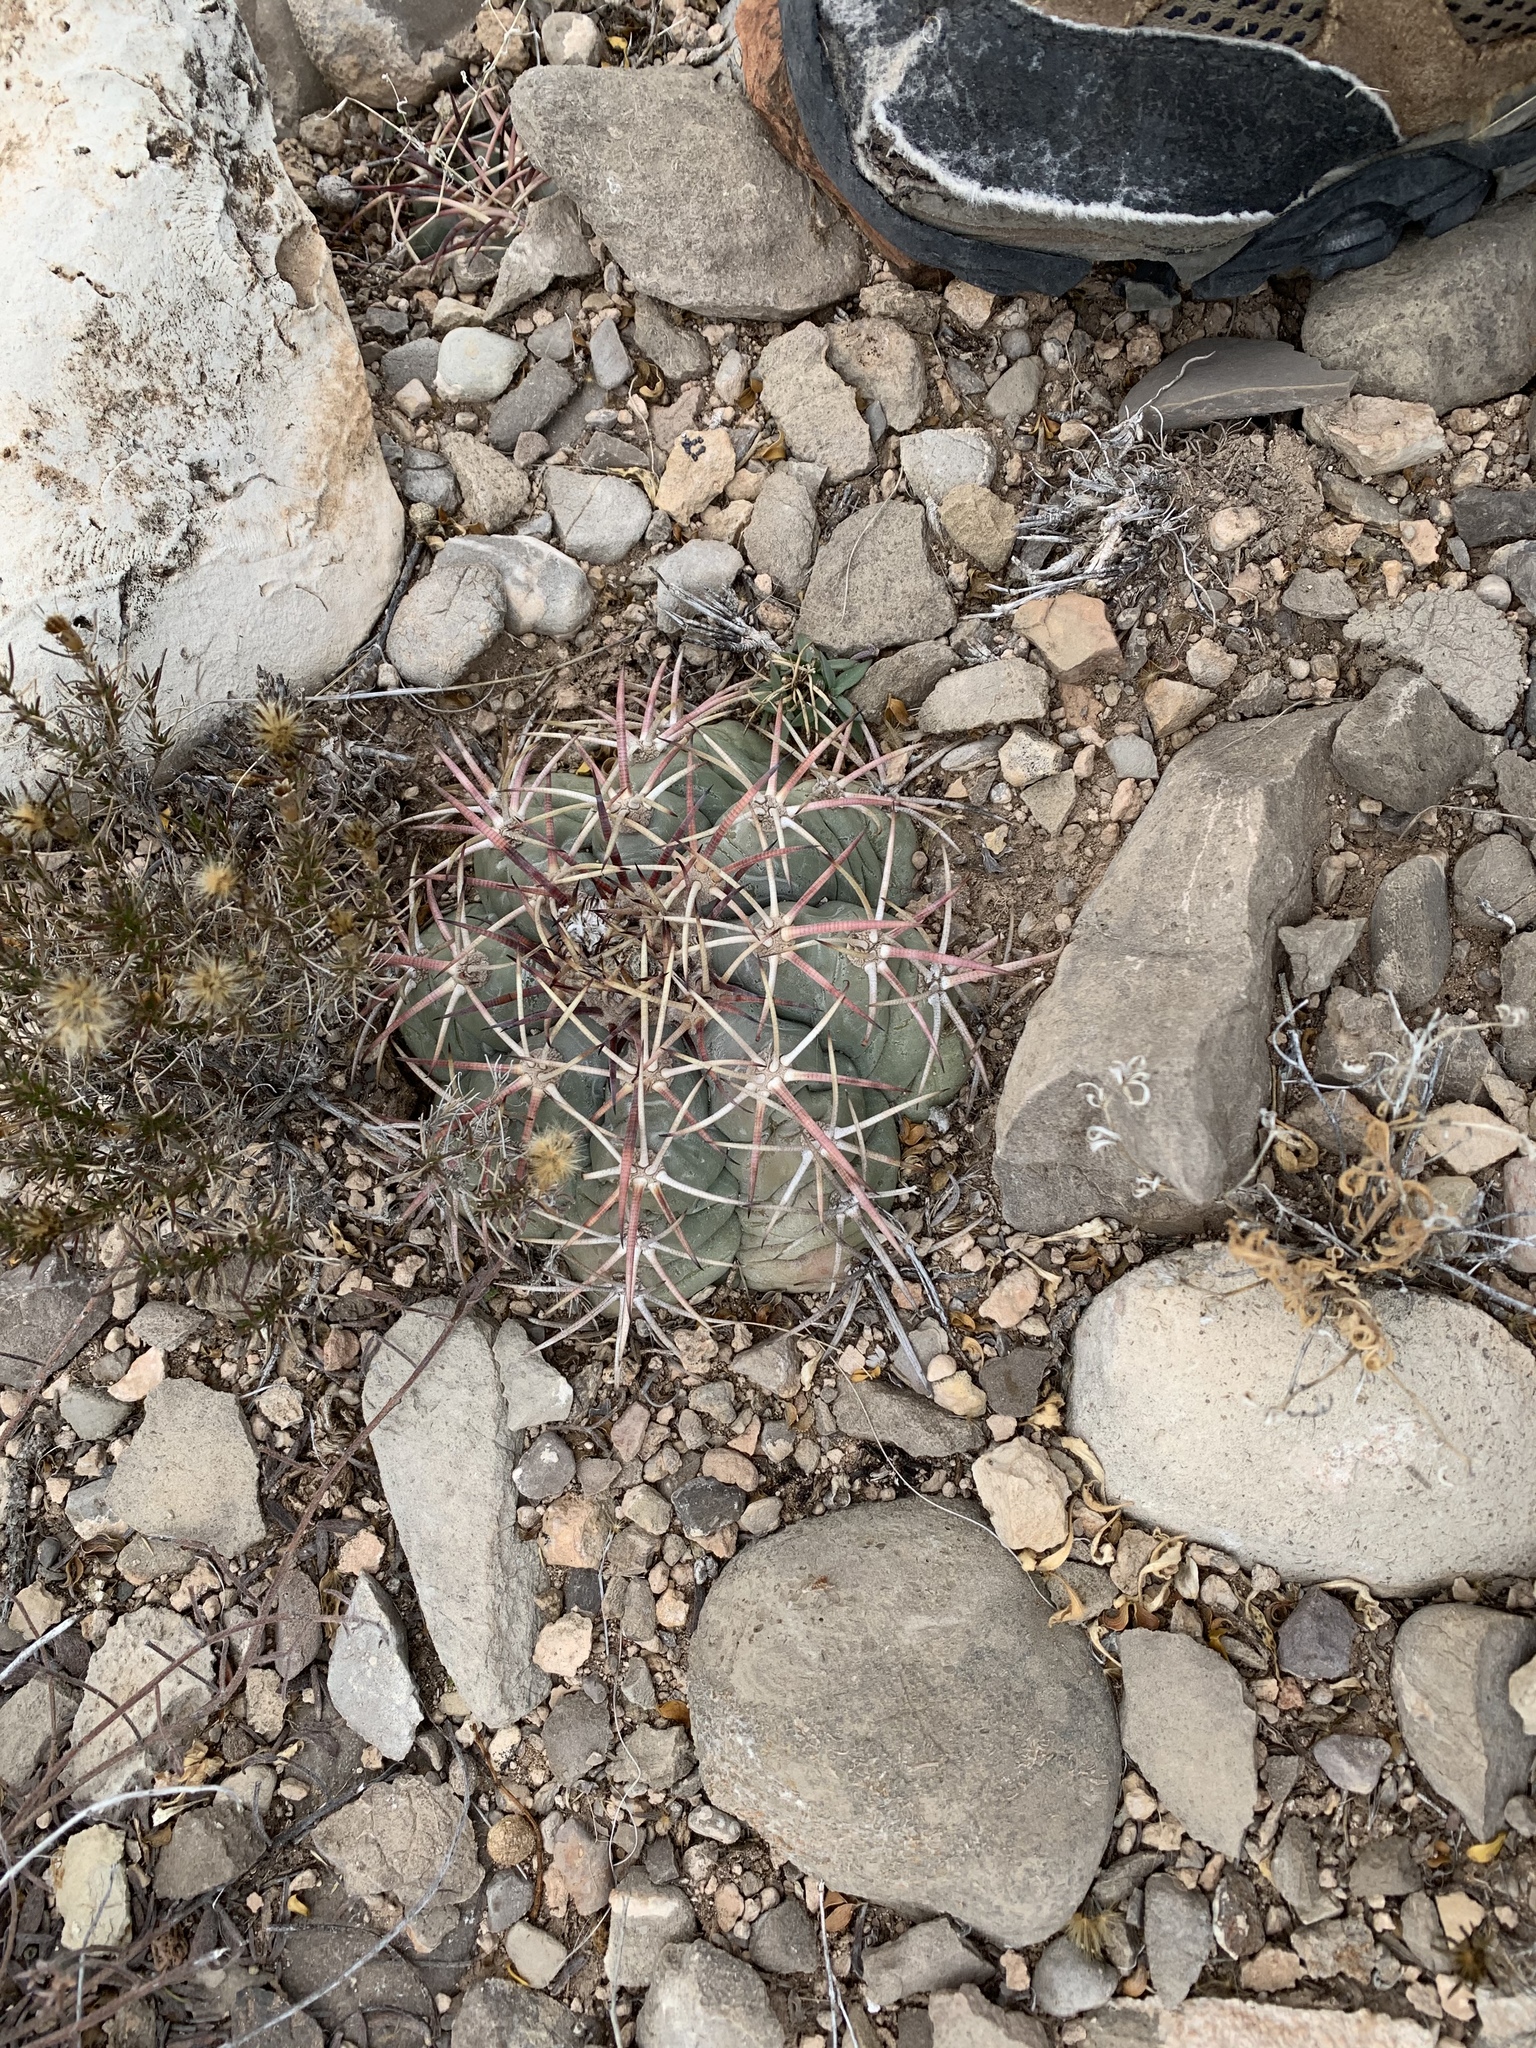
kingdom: Plantae
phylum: Tracheophyta
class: Magnoliopsida
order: Caryophyllales
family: Cactaceae
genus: Echinocactus
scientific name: Echinocactus horizonthalonius
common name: Devilshead
